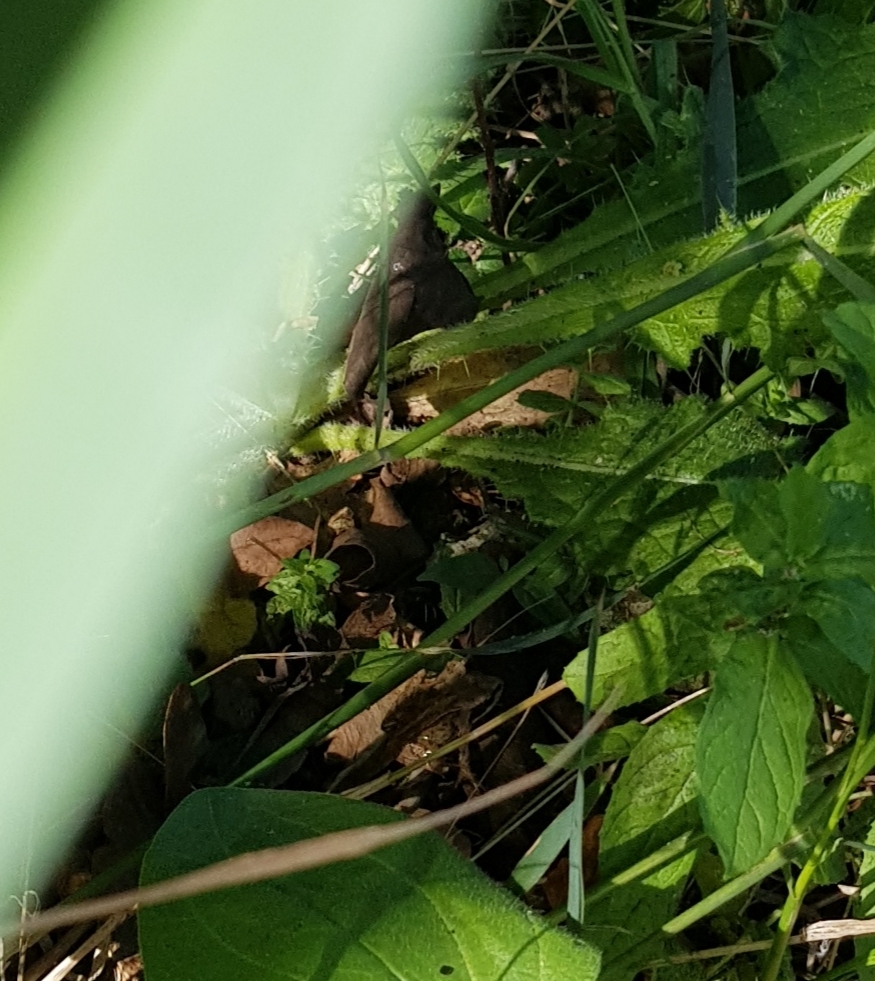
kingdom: Animalia
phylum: Chordata
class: Amphibia
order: Anura
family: Ranidae
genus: Rana
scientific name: Rana temporaria
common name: Common frog
